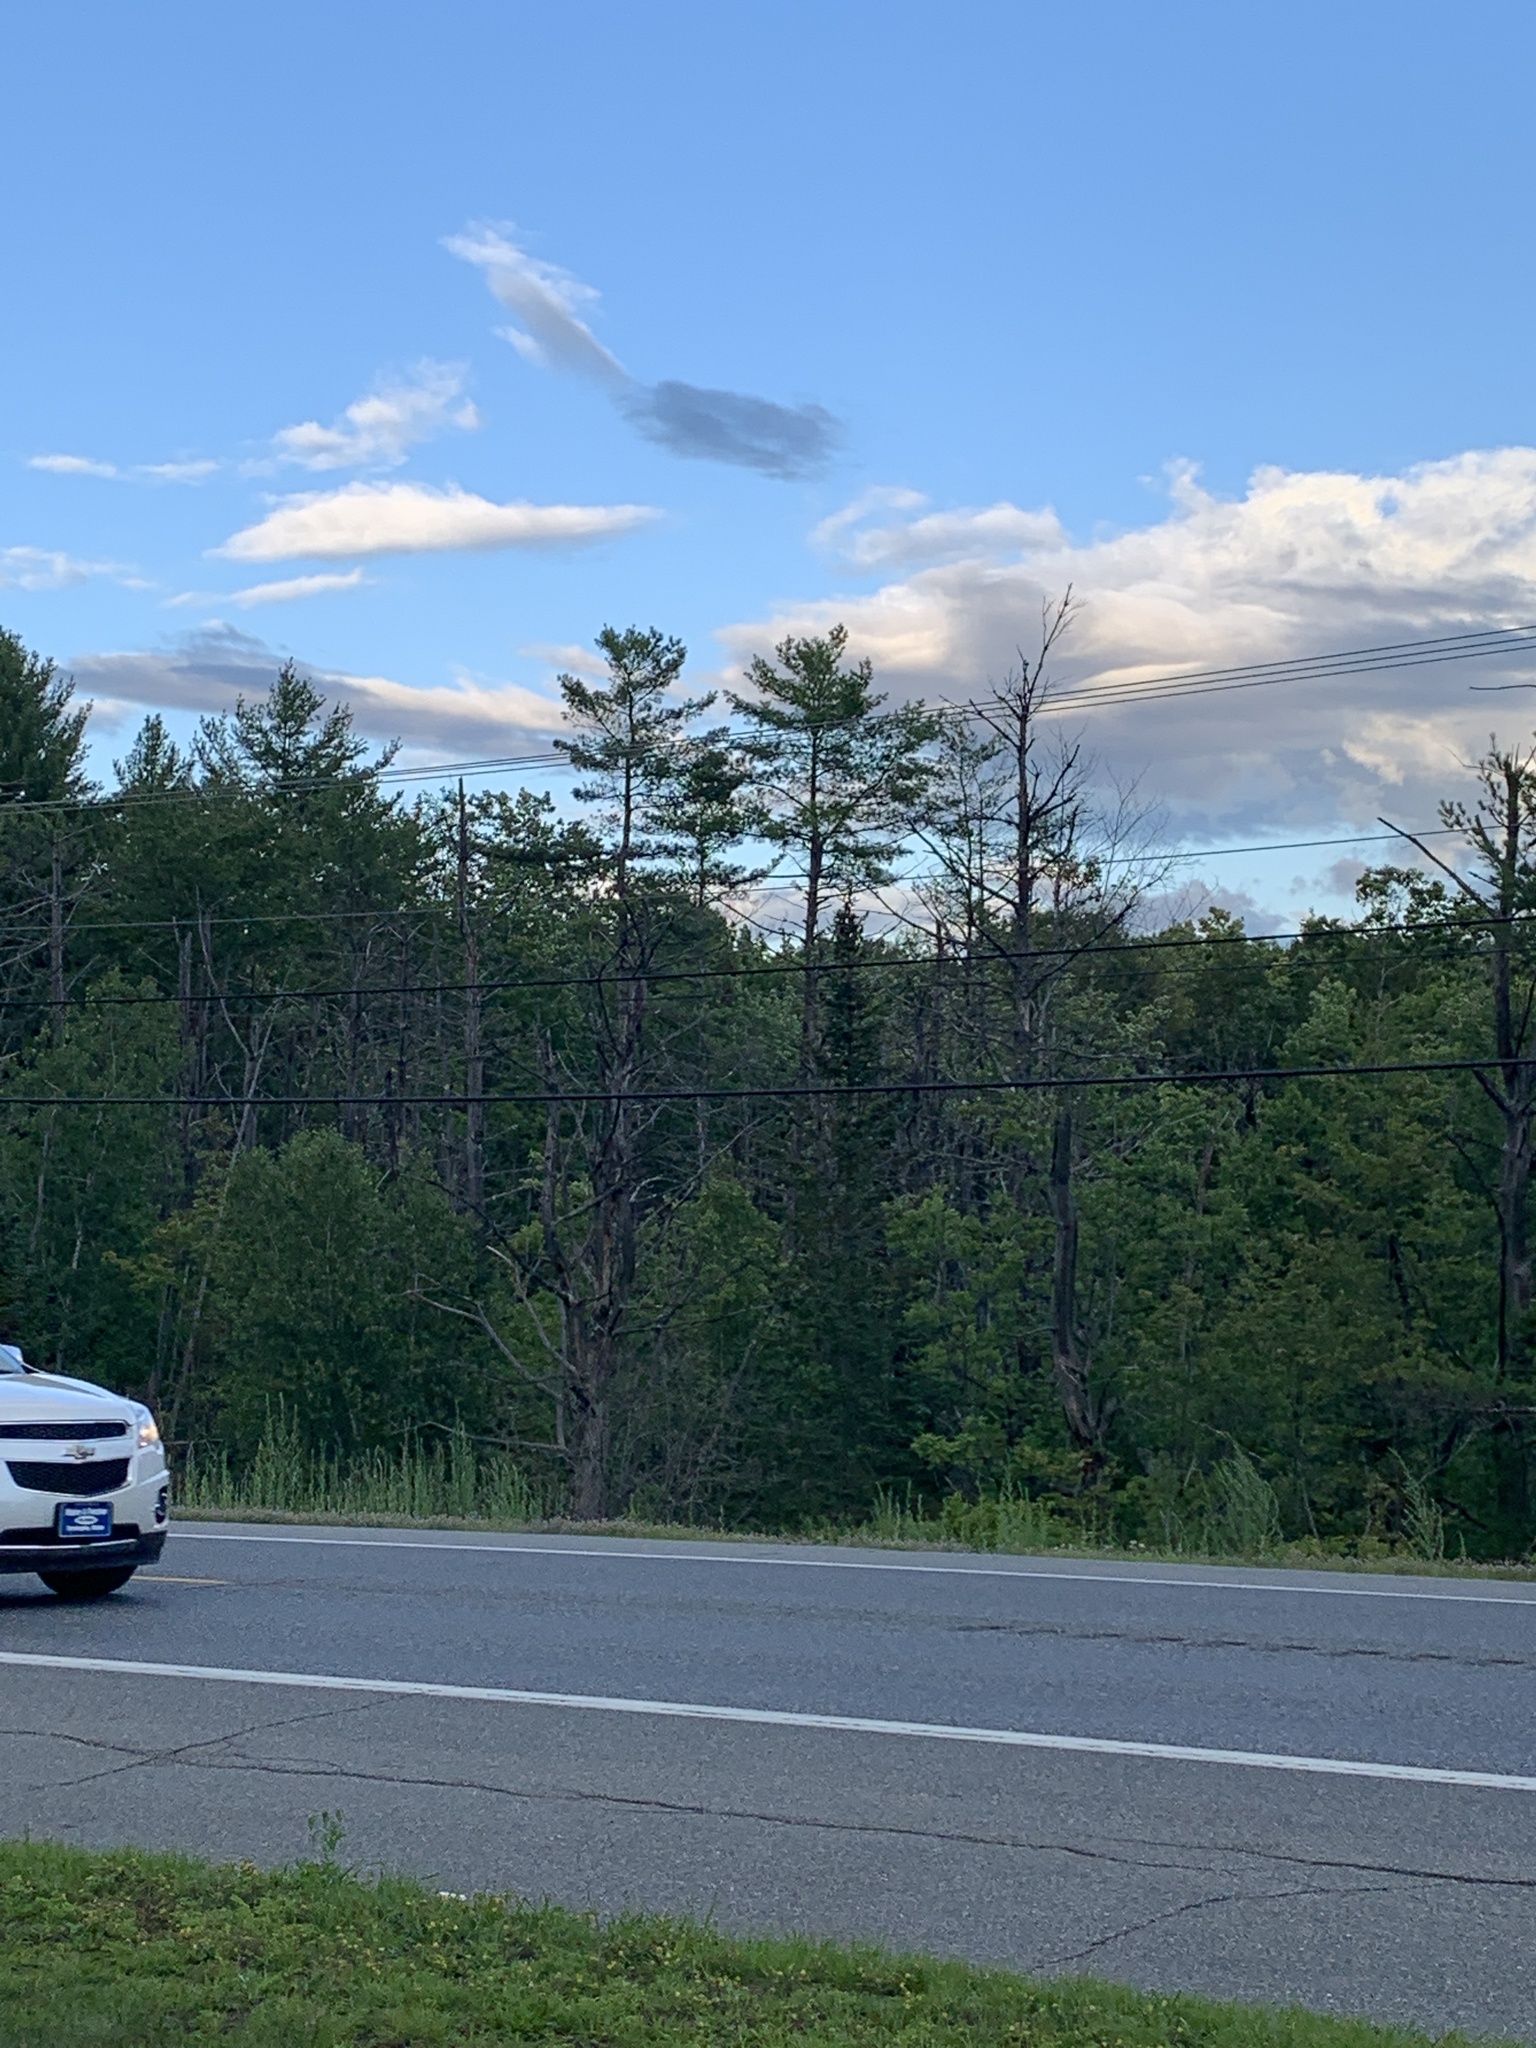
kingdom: Plantae
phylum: Tracheophyta
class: Pinopsida
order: Pinales
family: Pinaceae
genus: Pinus
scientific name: Pinus strobus
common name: Weymouth pine
